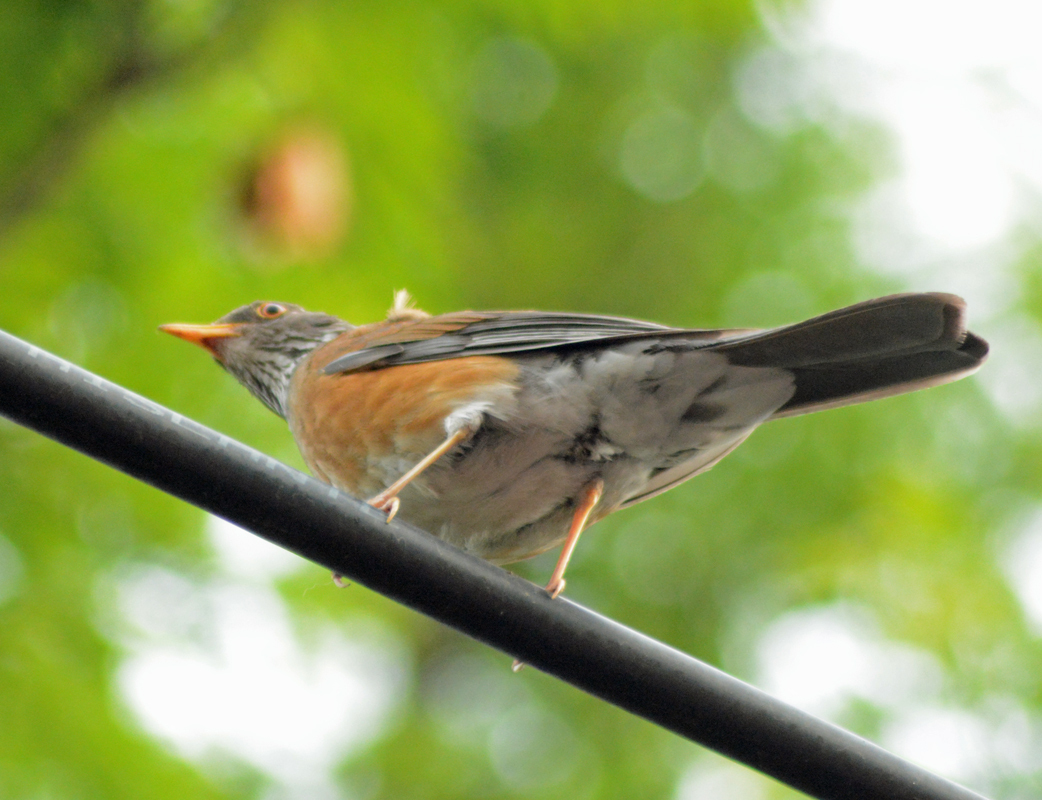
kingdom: Animalia
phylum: Chordata
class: Aves
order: Passeriformes
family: Turdidae
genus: Turdus
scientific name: Turdus rufopalliatus
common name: Rufous-backed robin
